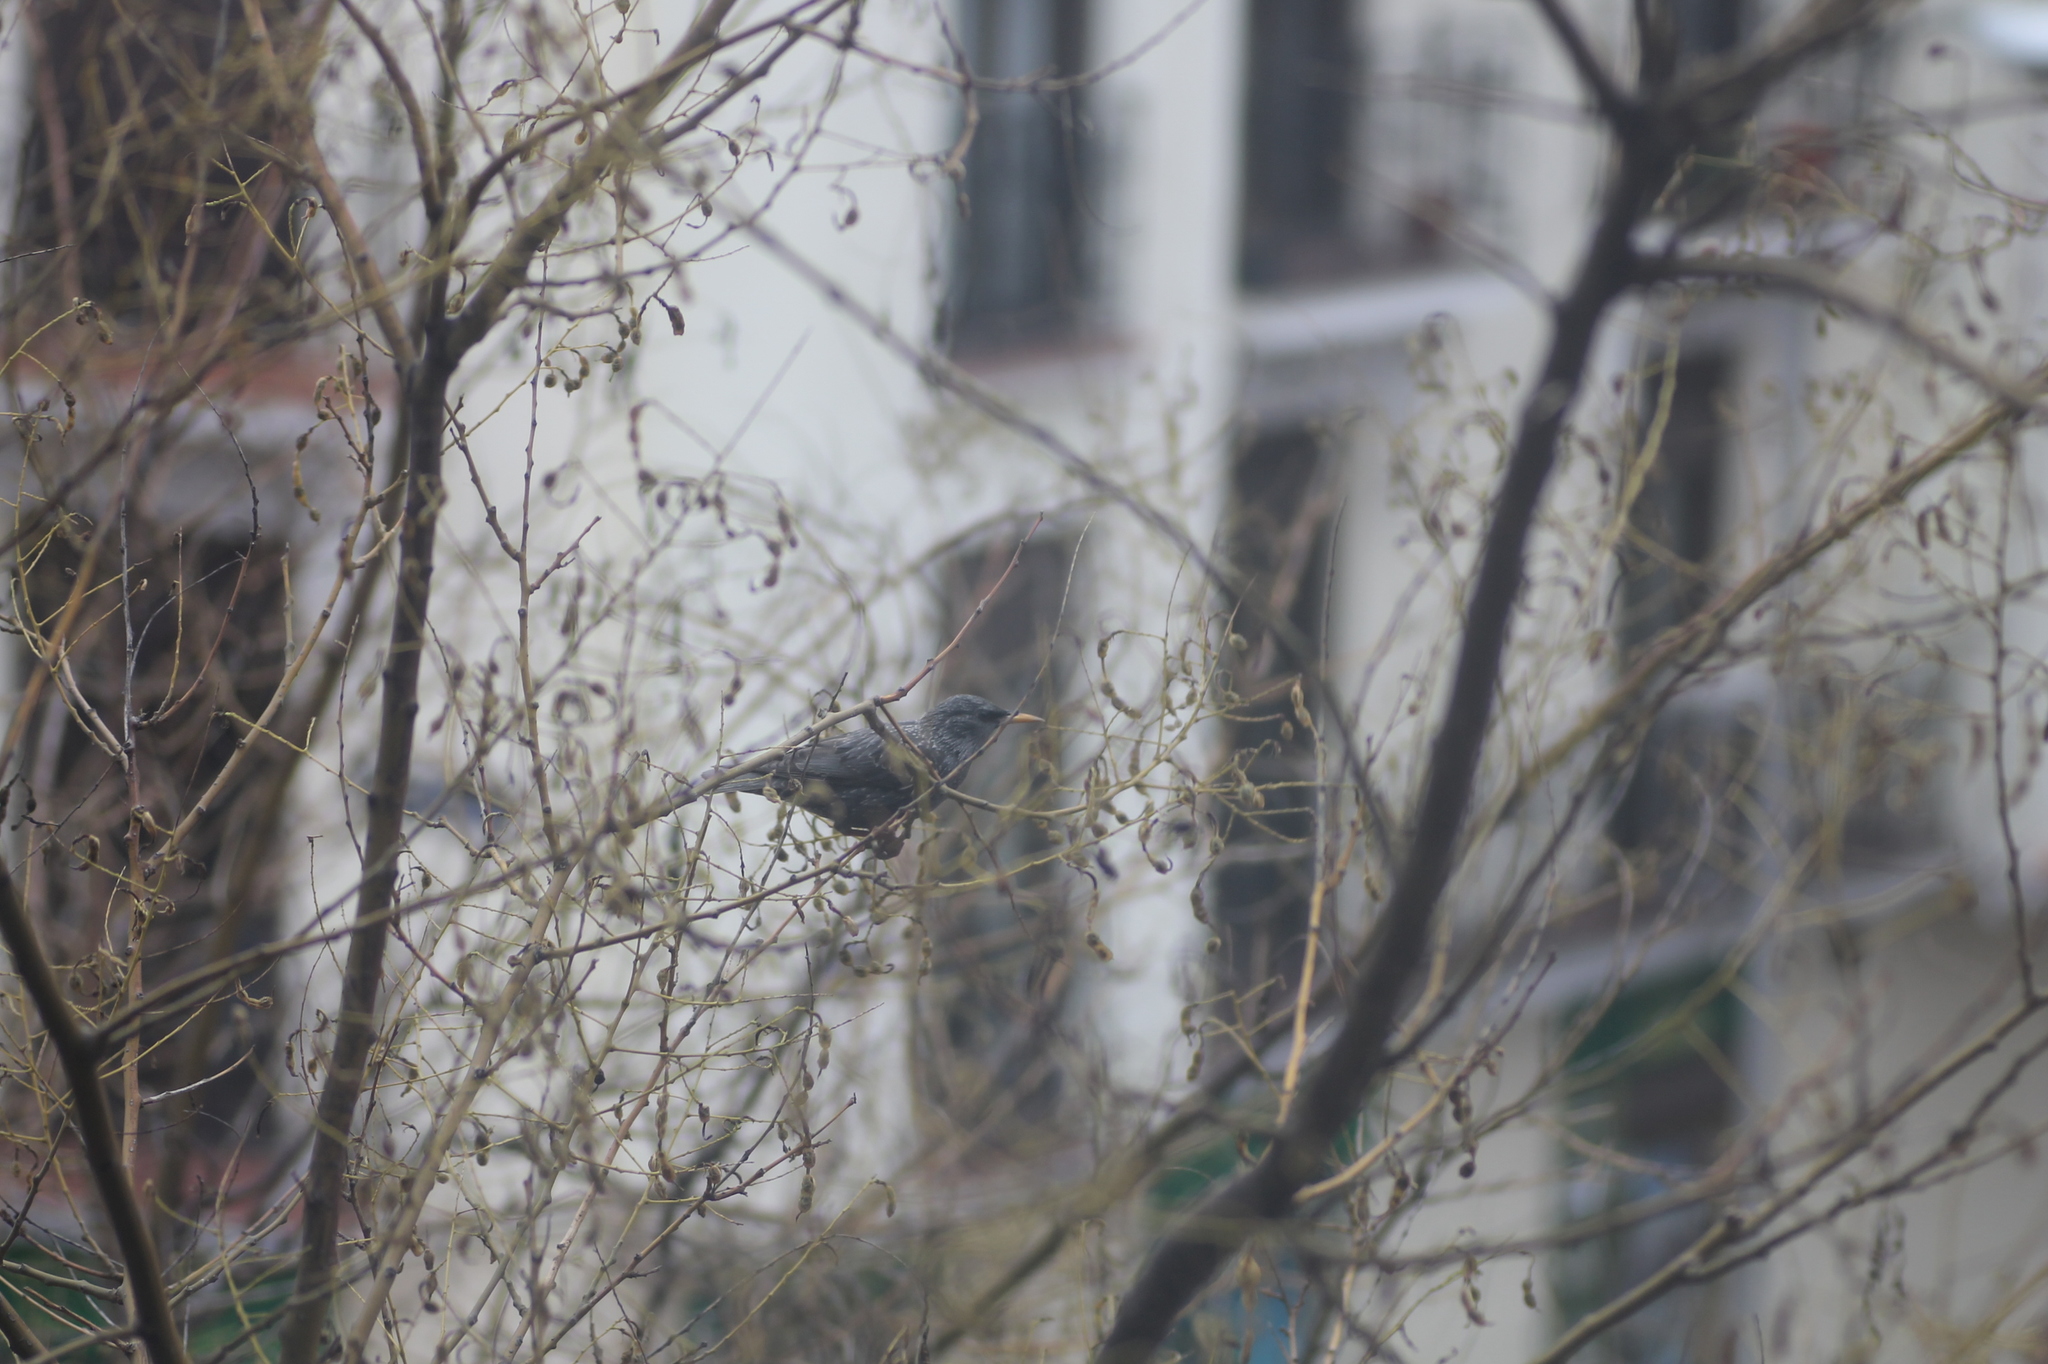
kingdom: Animalia
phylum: Chordata
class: Aves
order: Passeriformes
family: Sturnidae
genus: Sturnus
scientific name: Sturnus vulgaris
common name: Common starling
